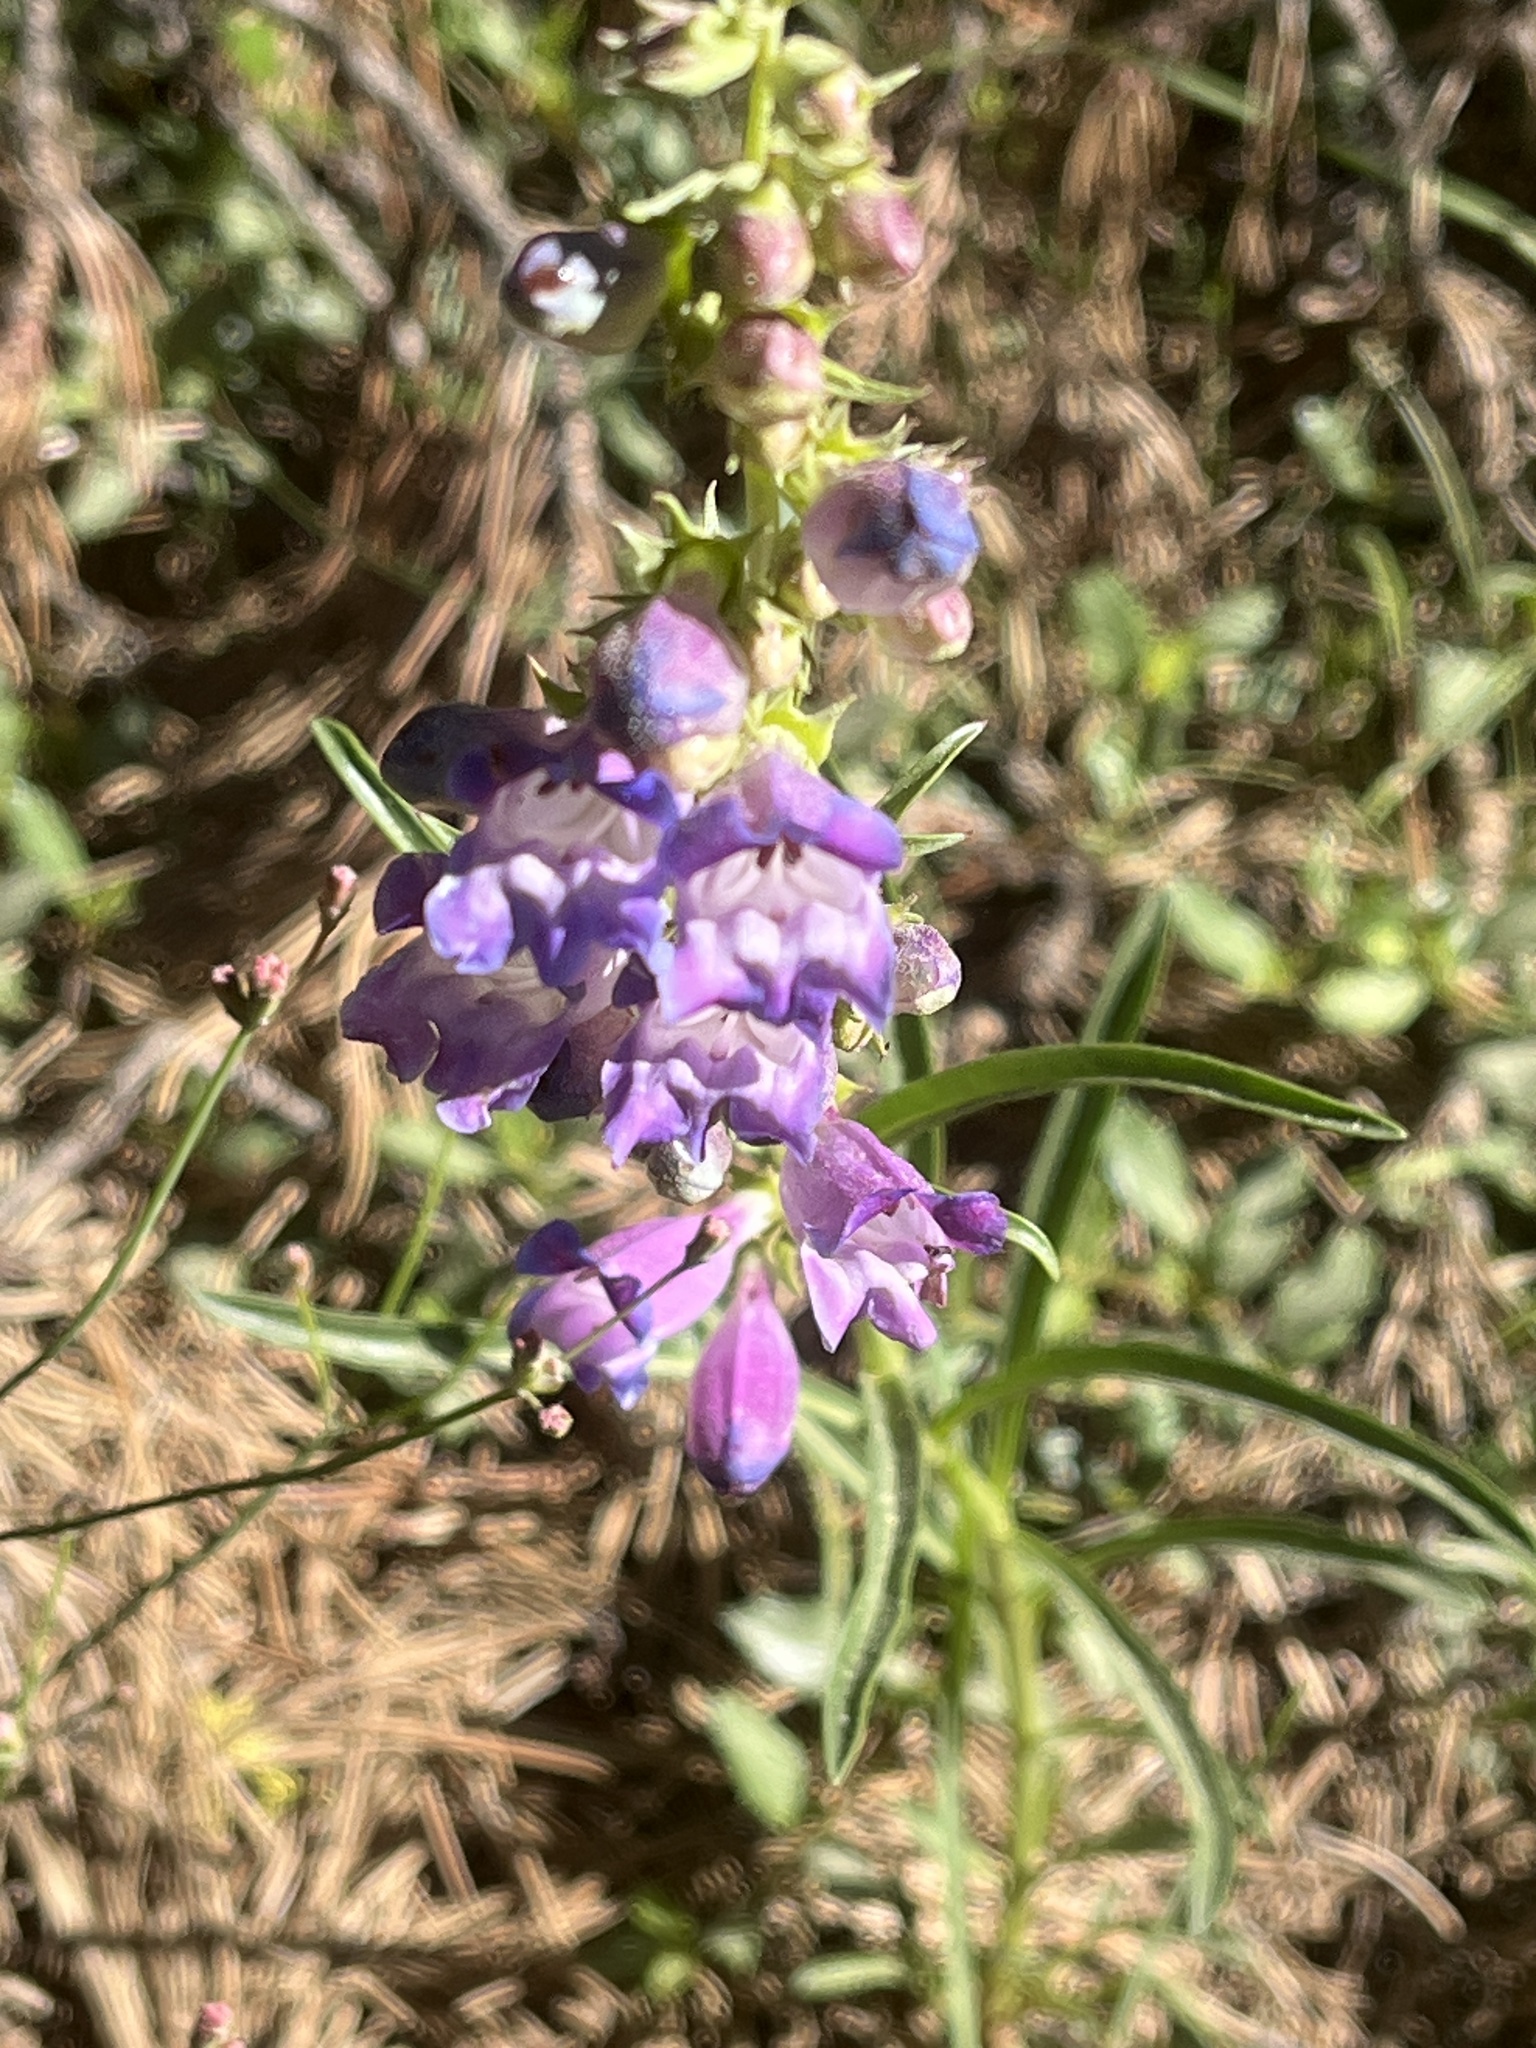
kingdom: Plantae
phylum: Tracheophyta
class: Magnoliopsida
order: Lamiales
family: Plantaginaceae
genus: Penstemon
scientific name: Penstemon speciosus
